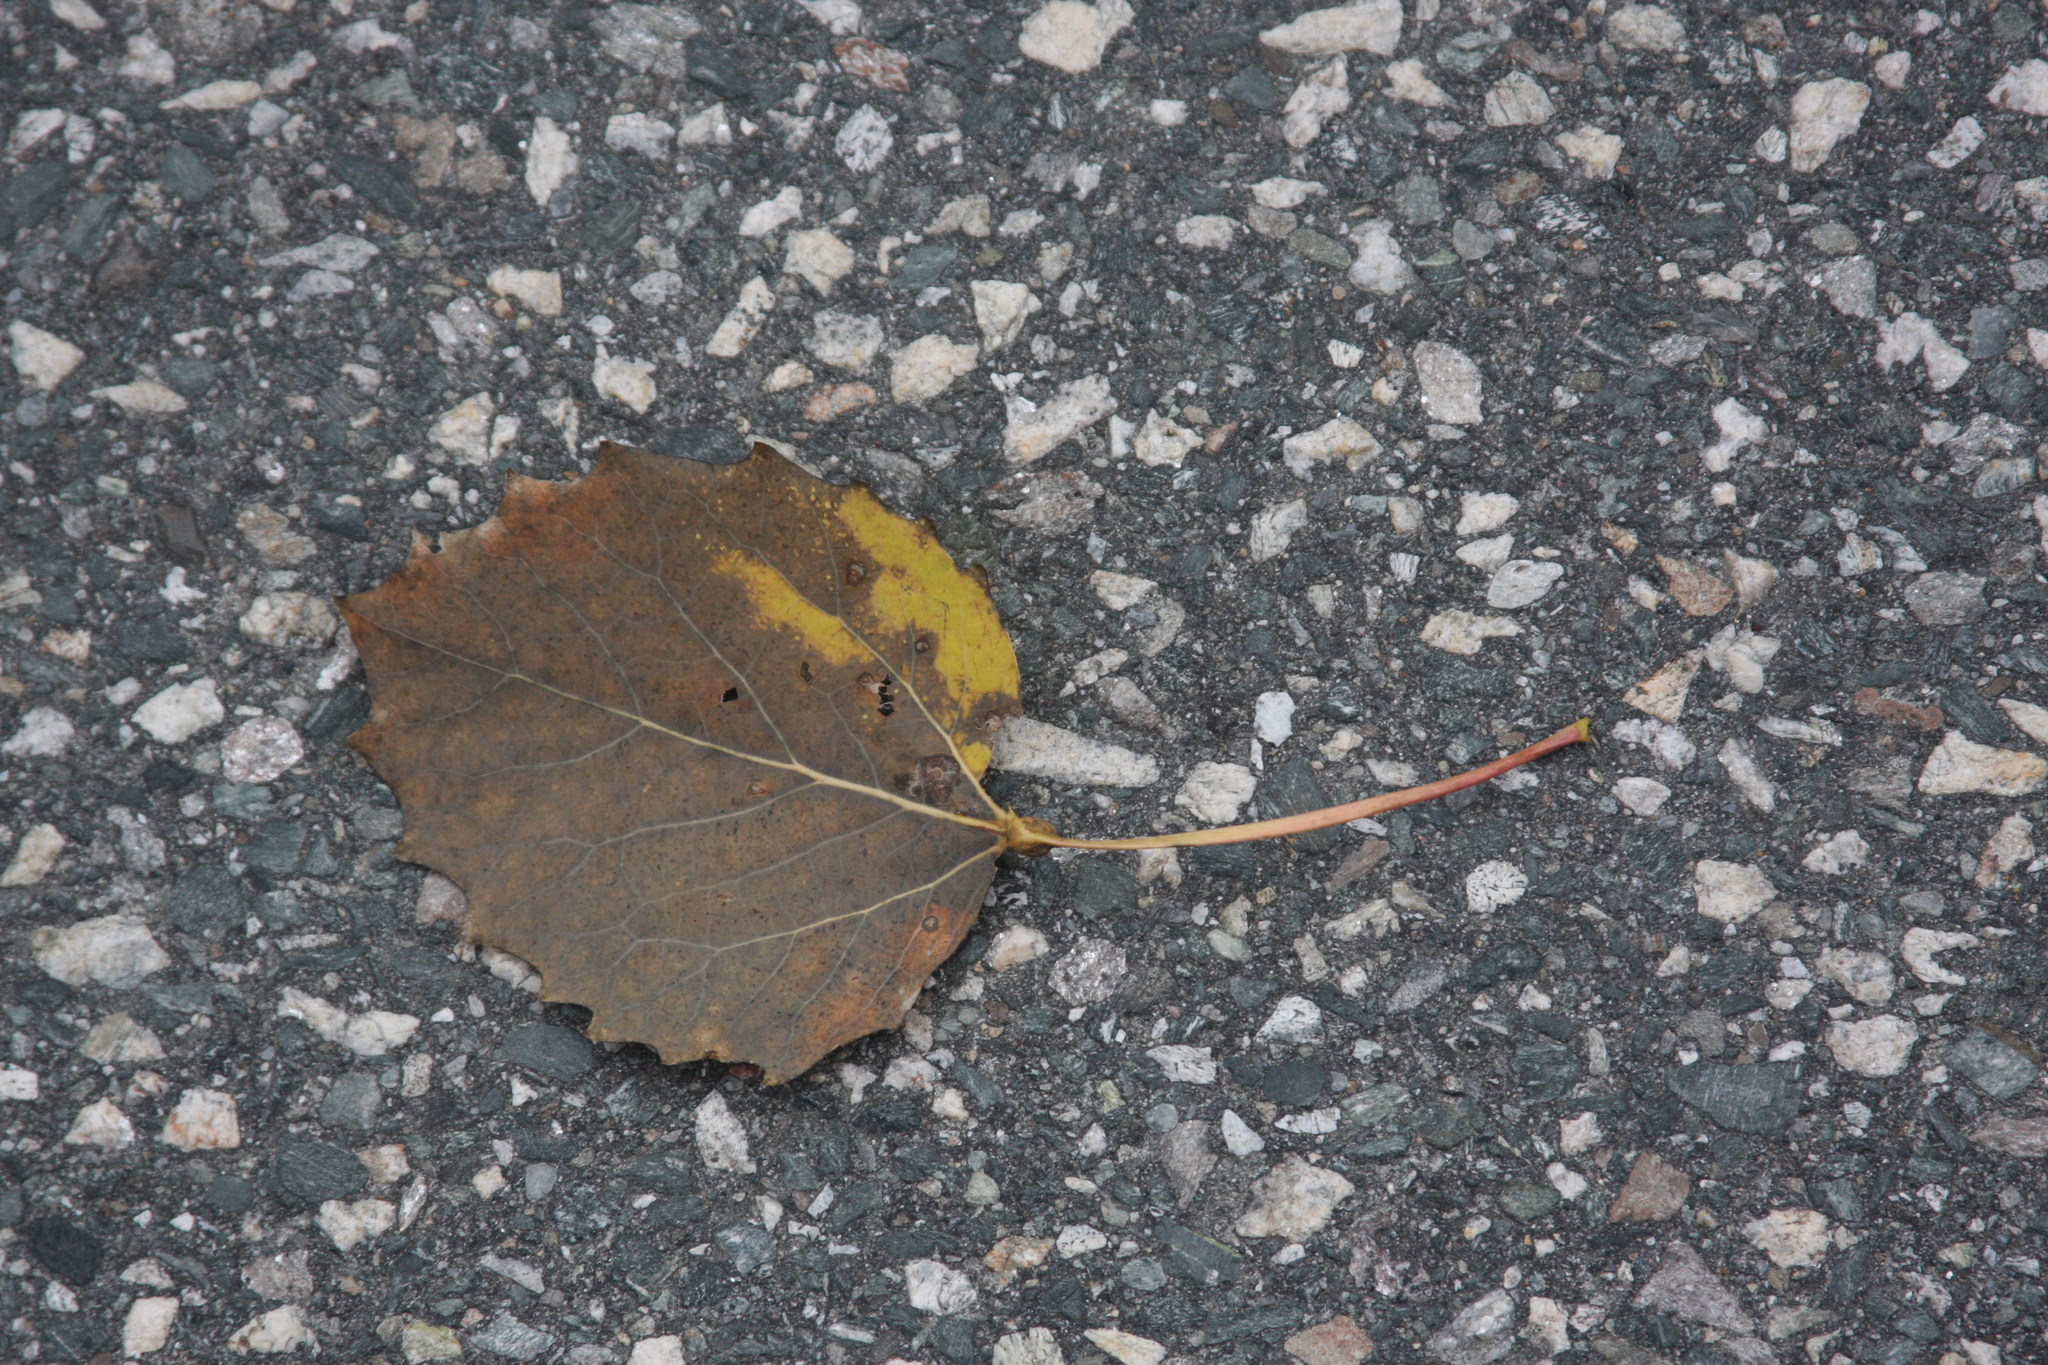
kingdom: Plantae
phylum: Tracheophyta
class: Magnoliopsida
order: Malpighiales
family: Salicaceae
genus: Populus
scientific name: Populus grandidentata
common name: Bigtooth aspen
